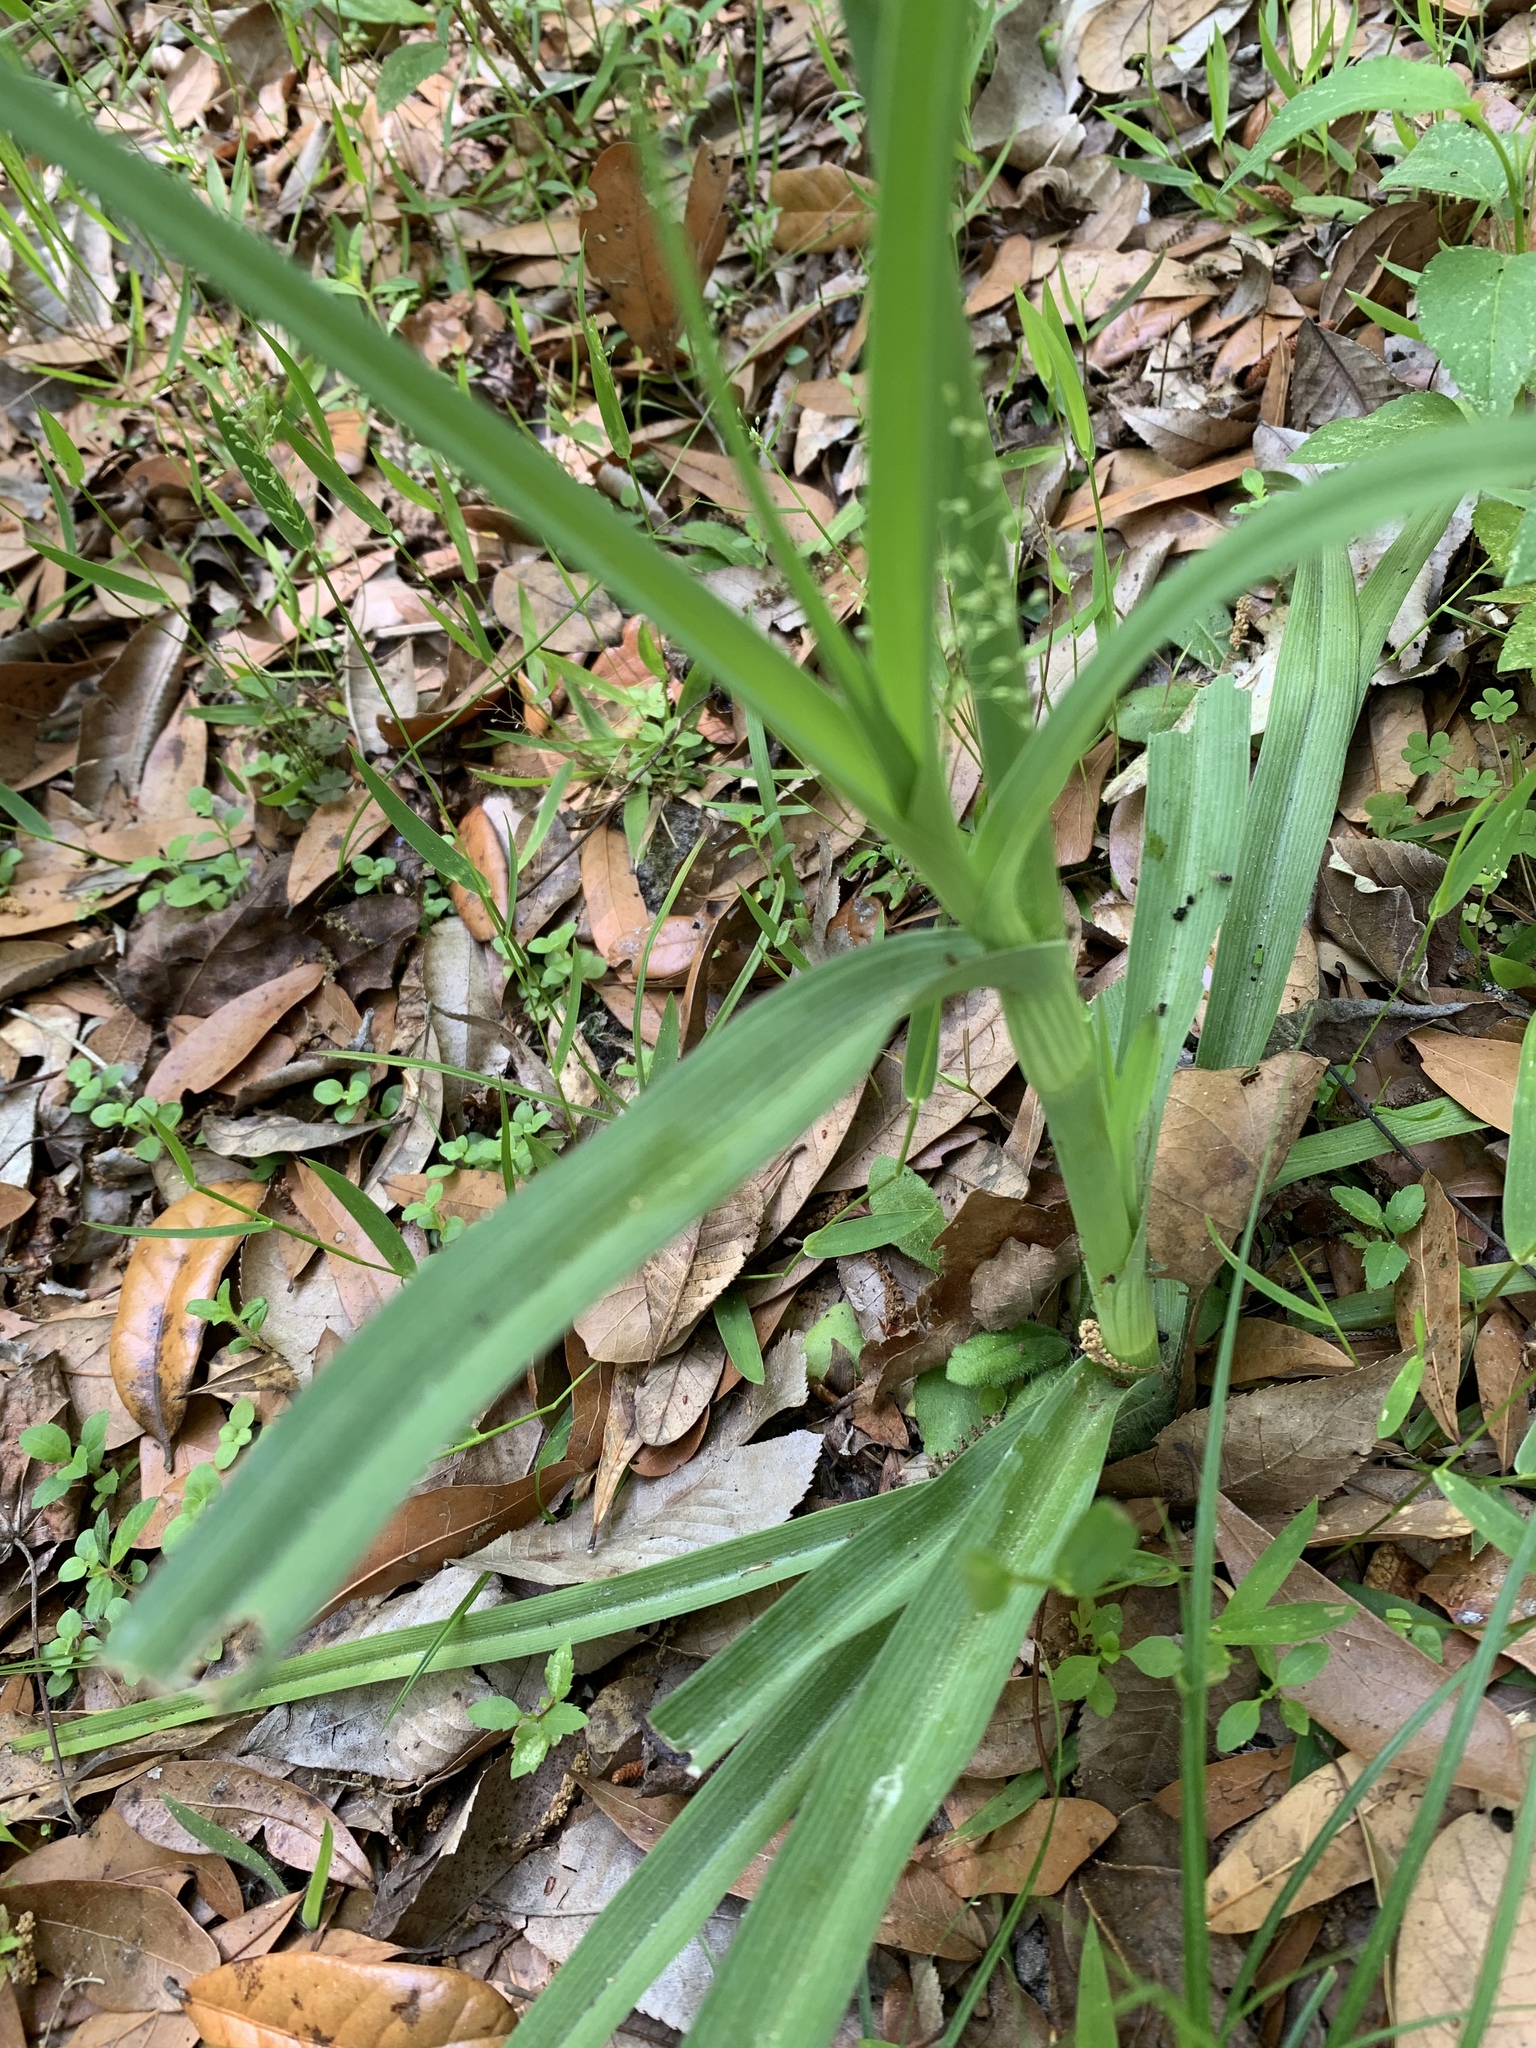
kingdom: Plantae
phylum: Tracheophyta
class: Liliopsida
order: Commelinales
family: Commelinaceae
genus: Tradescantia
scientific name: Tradescantia ohiensis
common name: Ohio spiderwort
